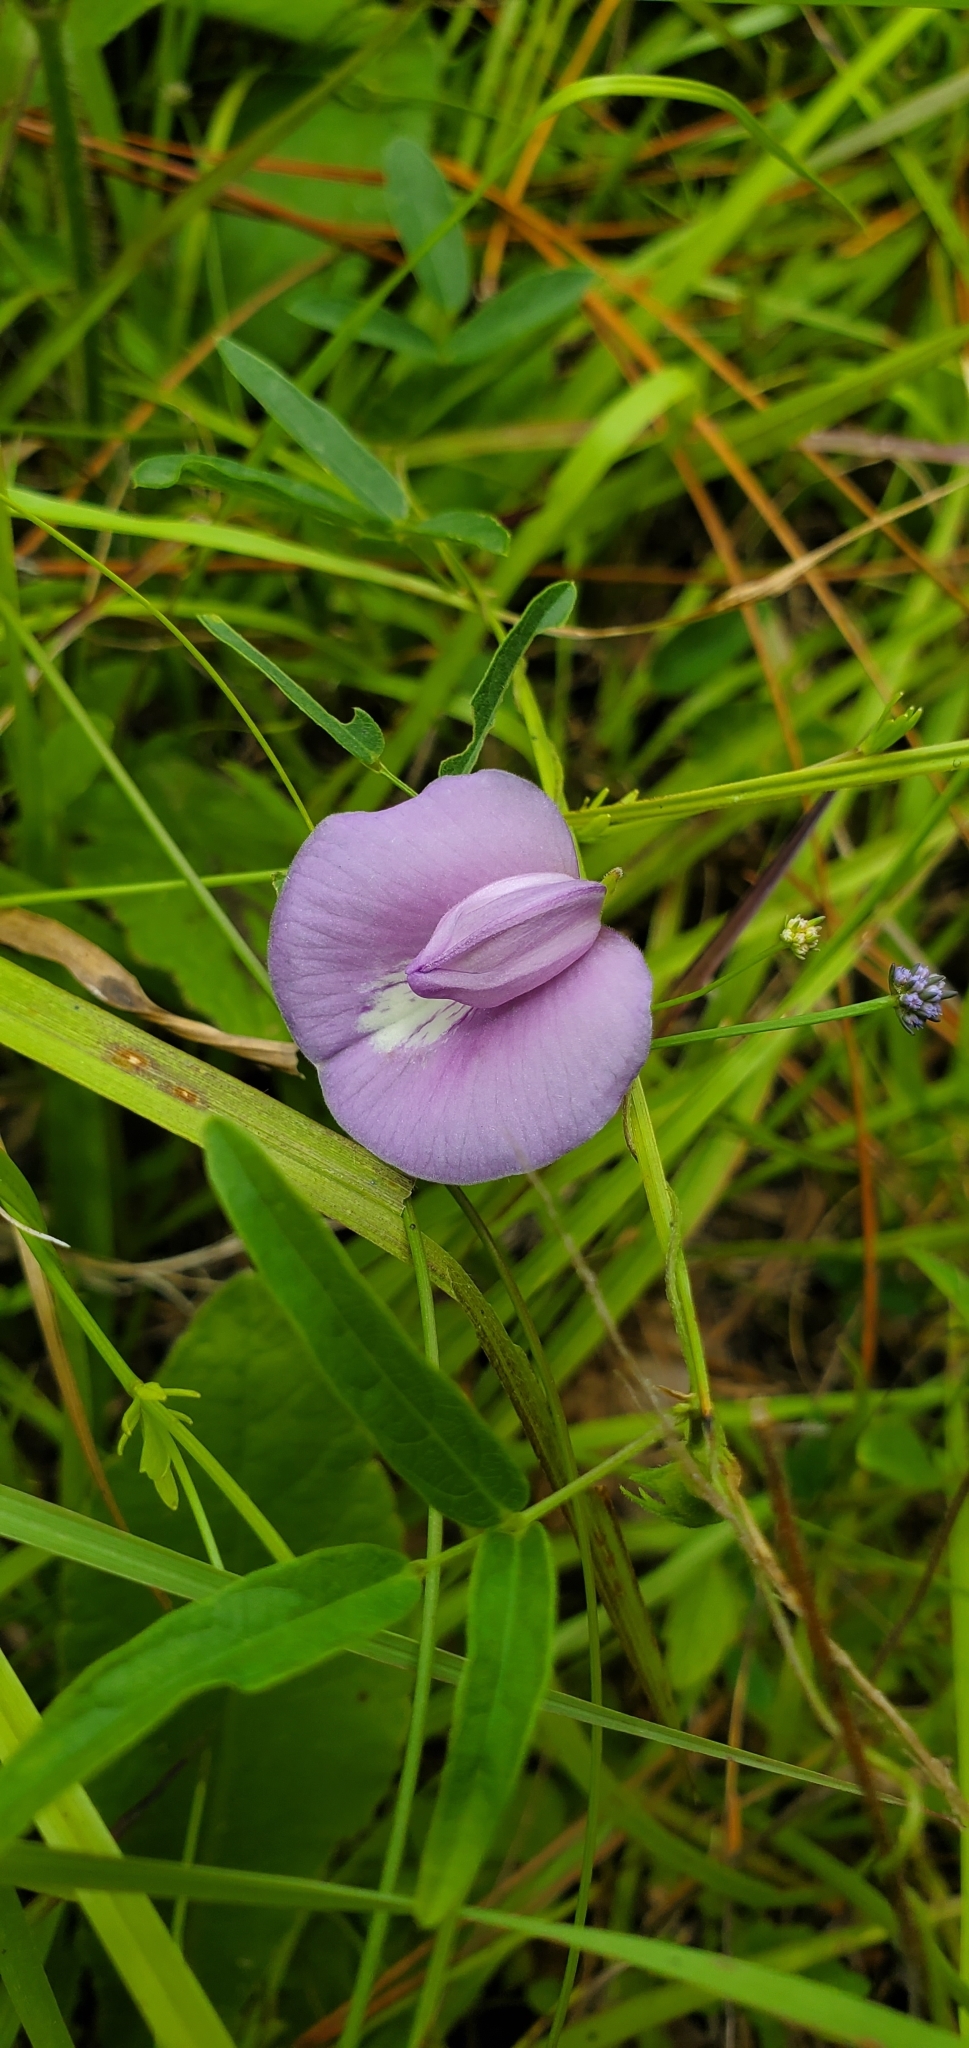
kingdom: Plantae
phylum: Tracheophyta
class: Magnoliopsida
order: Fabales
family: Fabaceae
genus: Centrosema
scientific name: Centrosema virginianum
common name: Butterfly-pea
